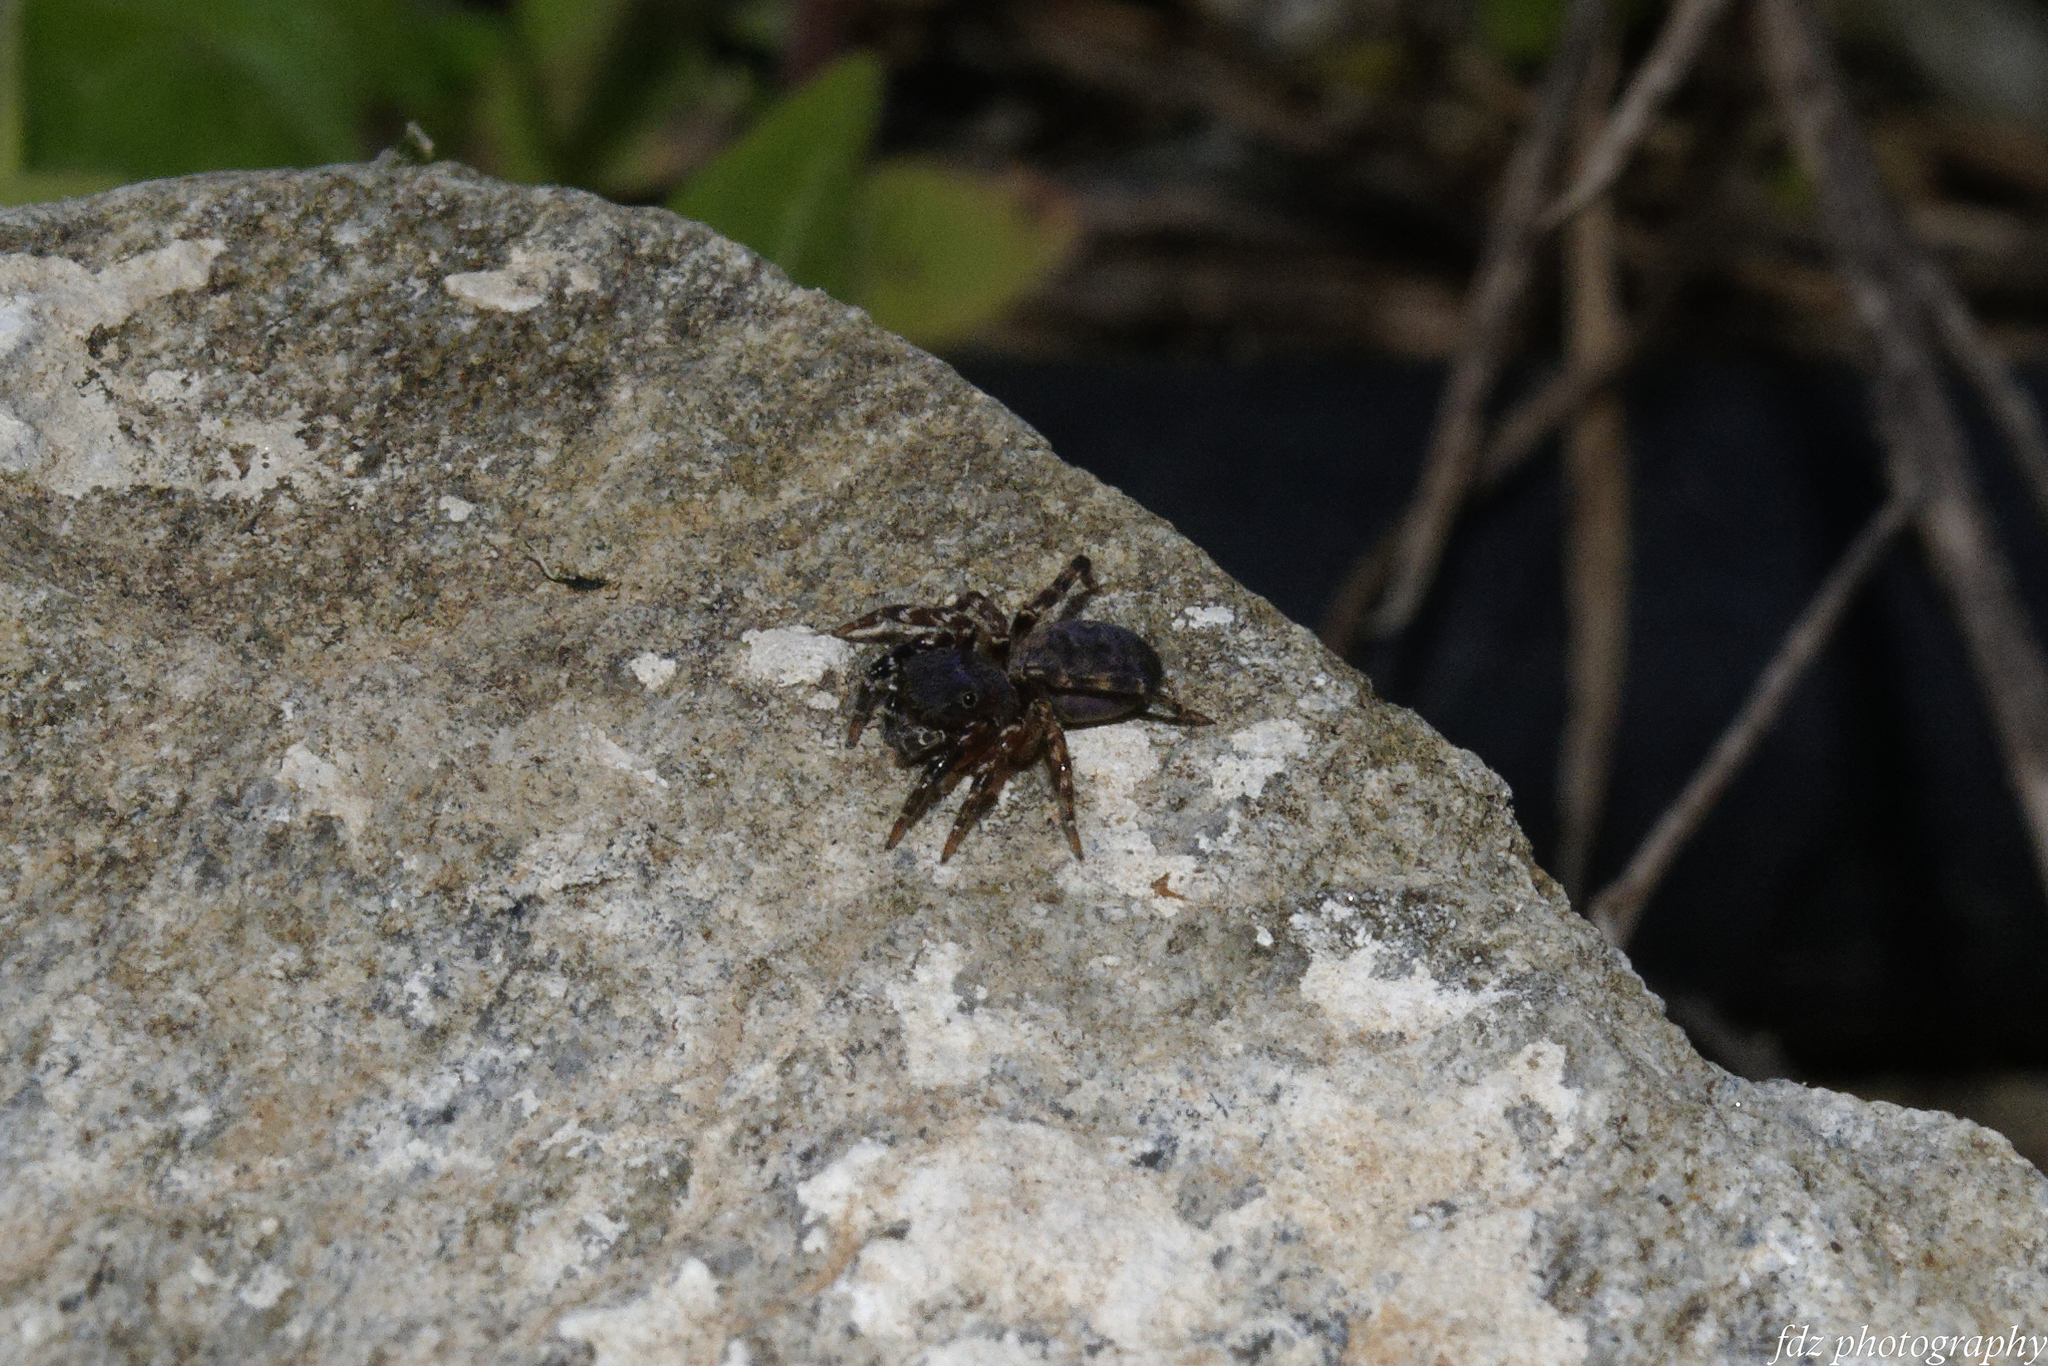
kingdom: Animalia
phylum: Arthropoda
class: Arachnida
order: Araneae
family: Salticidae
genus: Cyrba
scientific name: Cyrba algerina
